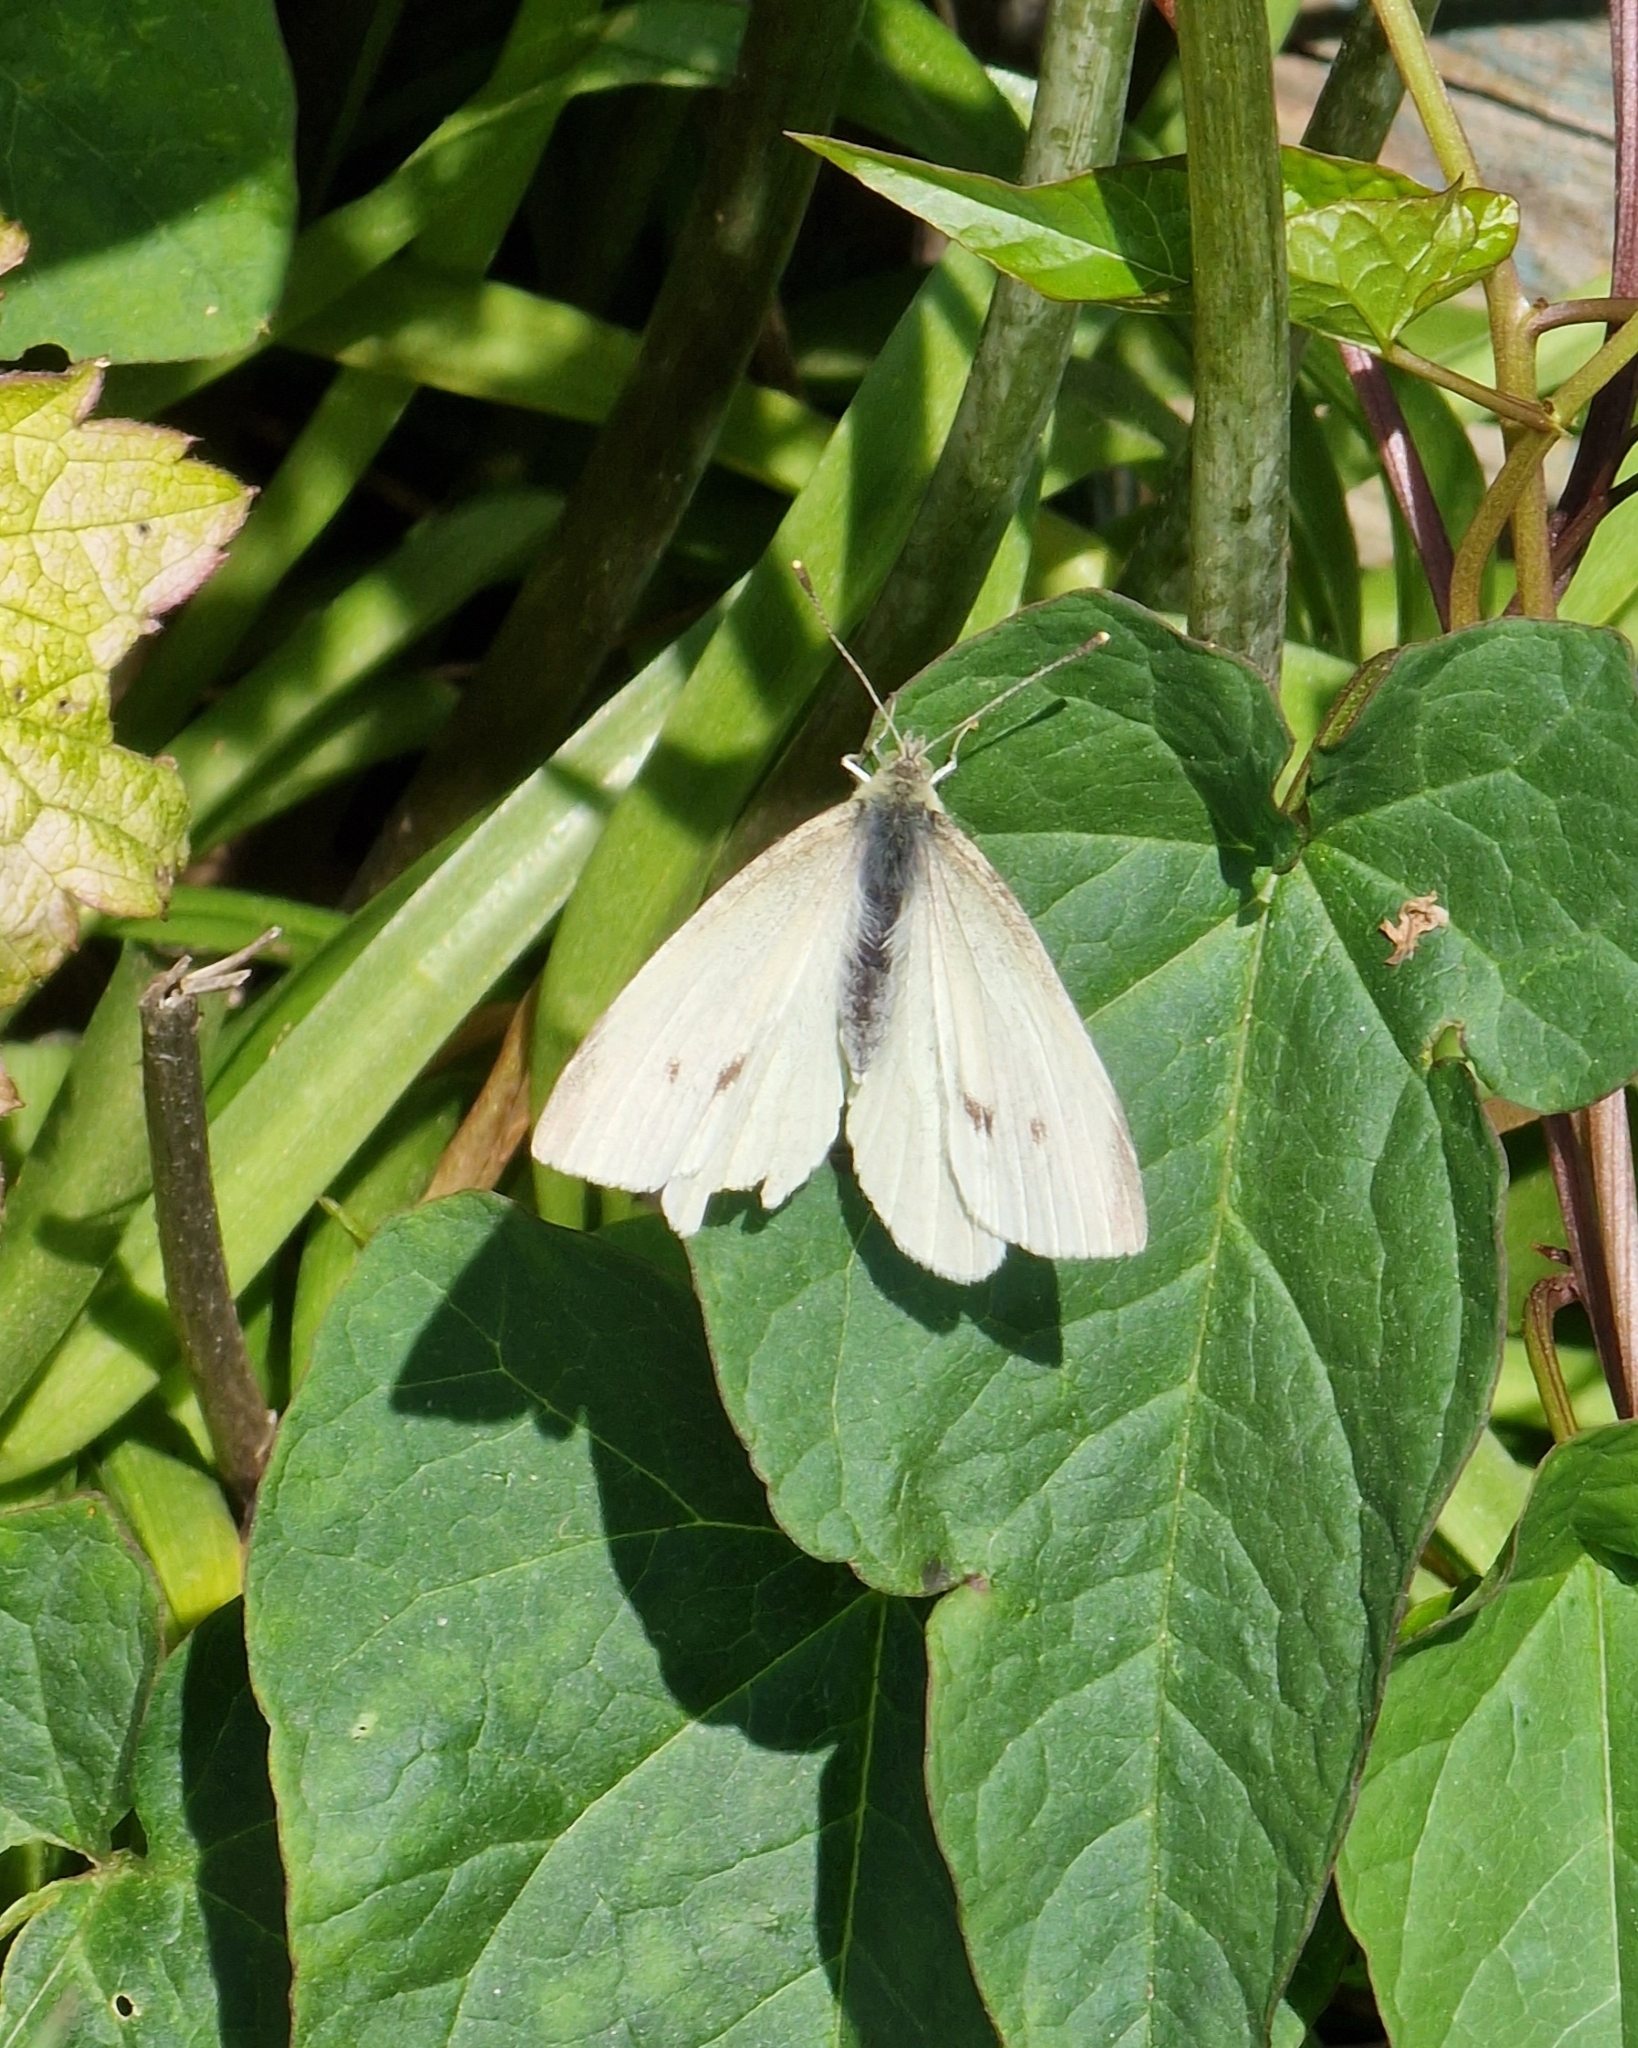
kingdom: Animalia
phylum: Arthropoda
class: Insecta
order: Lepidoptera
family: Pieridae
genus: Pieris
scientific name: Pieris rapae
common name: Small white
